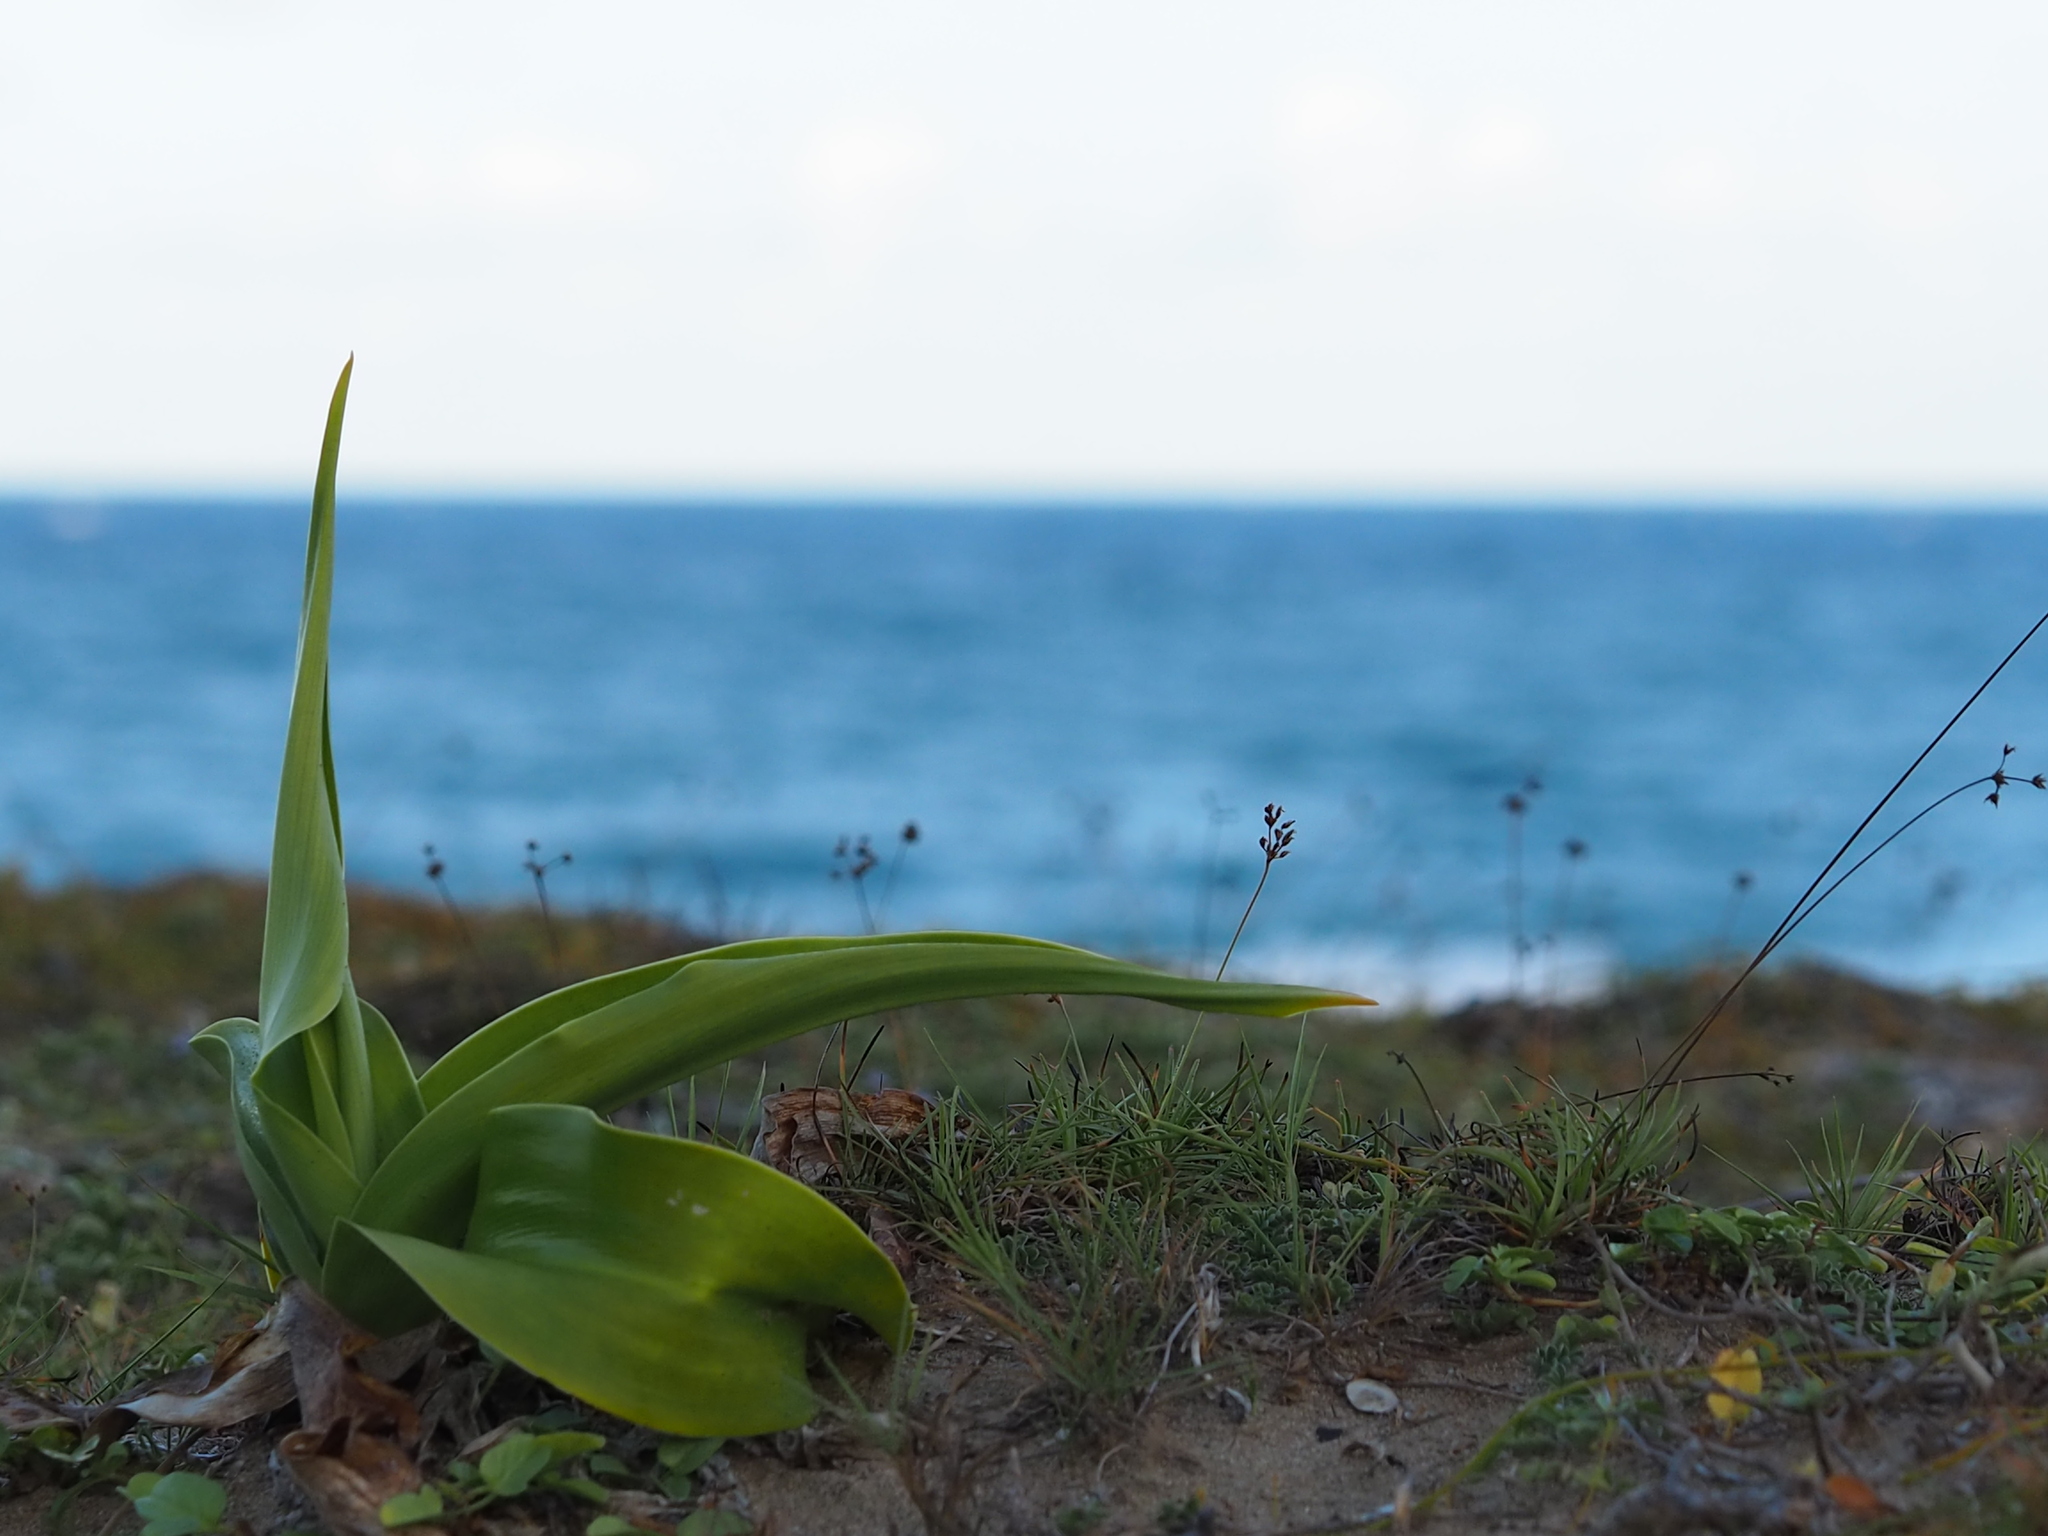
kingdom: Plantae
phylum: Tracheophyta
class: Liliopsida
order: Asparagales
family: Amaryllidaceae
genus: Crinum
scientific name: Crinum asiaticum
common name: Poisonbulb
